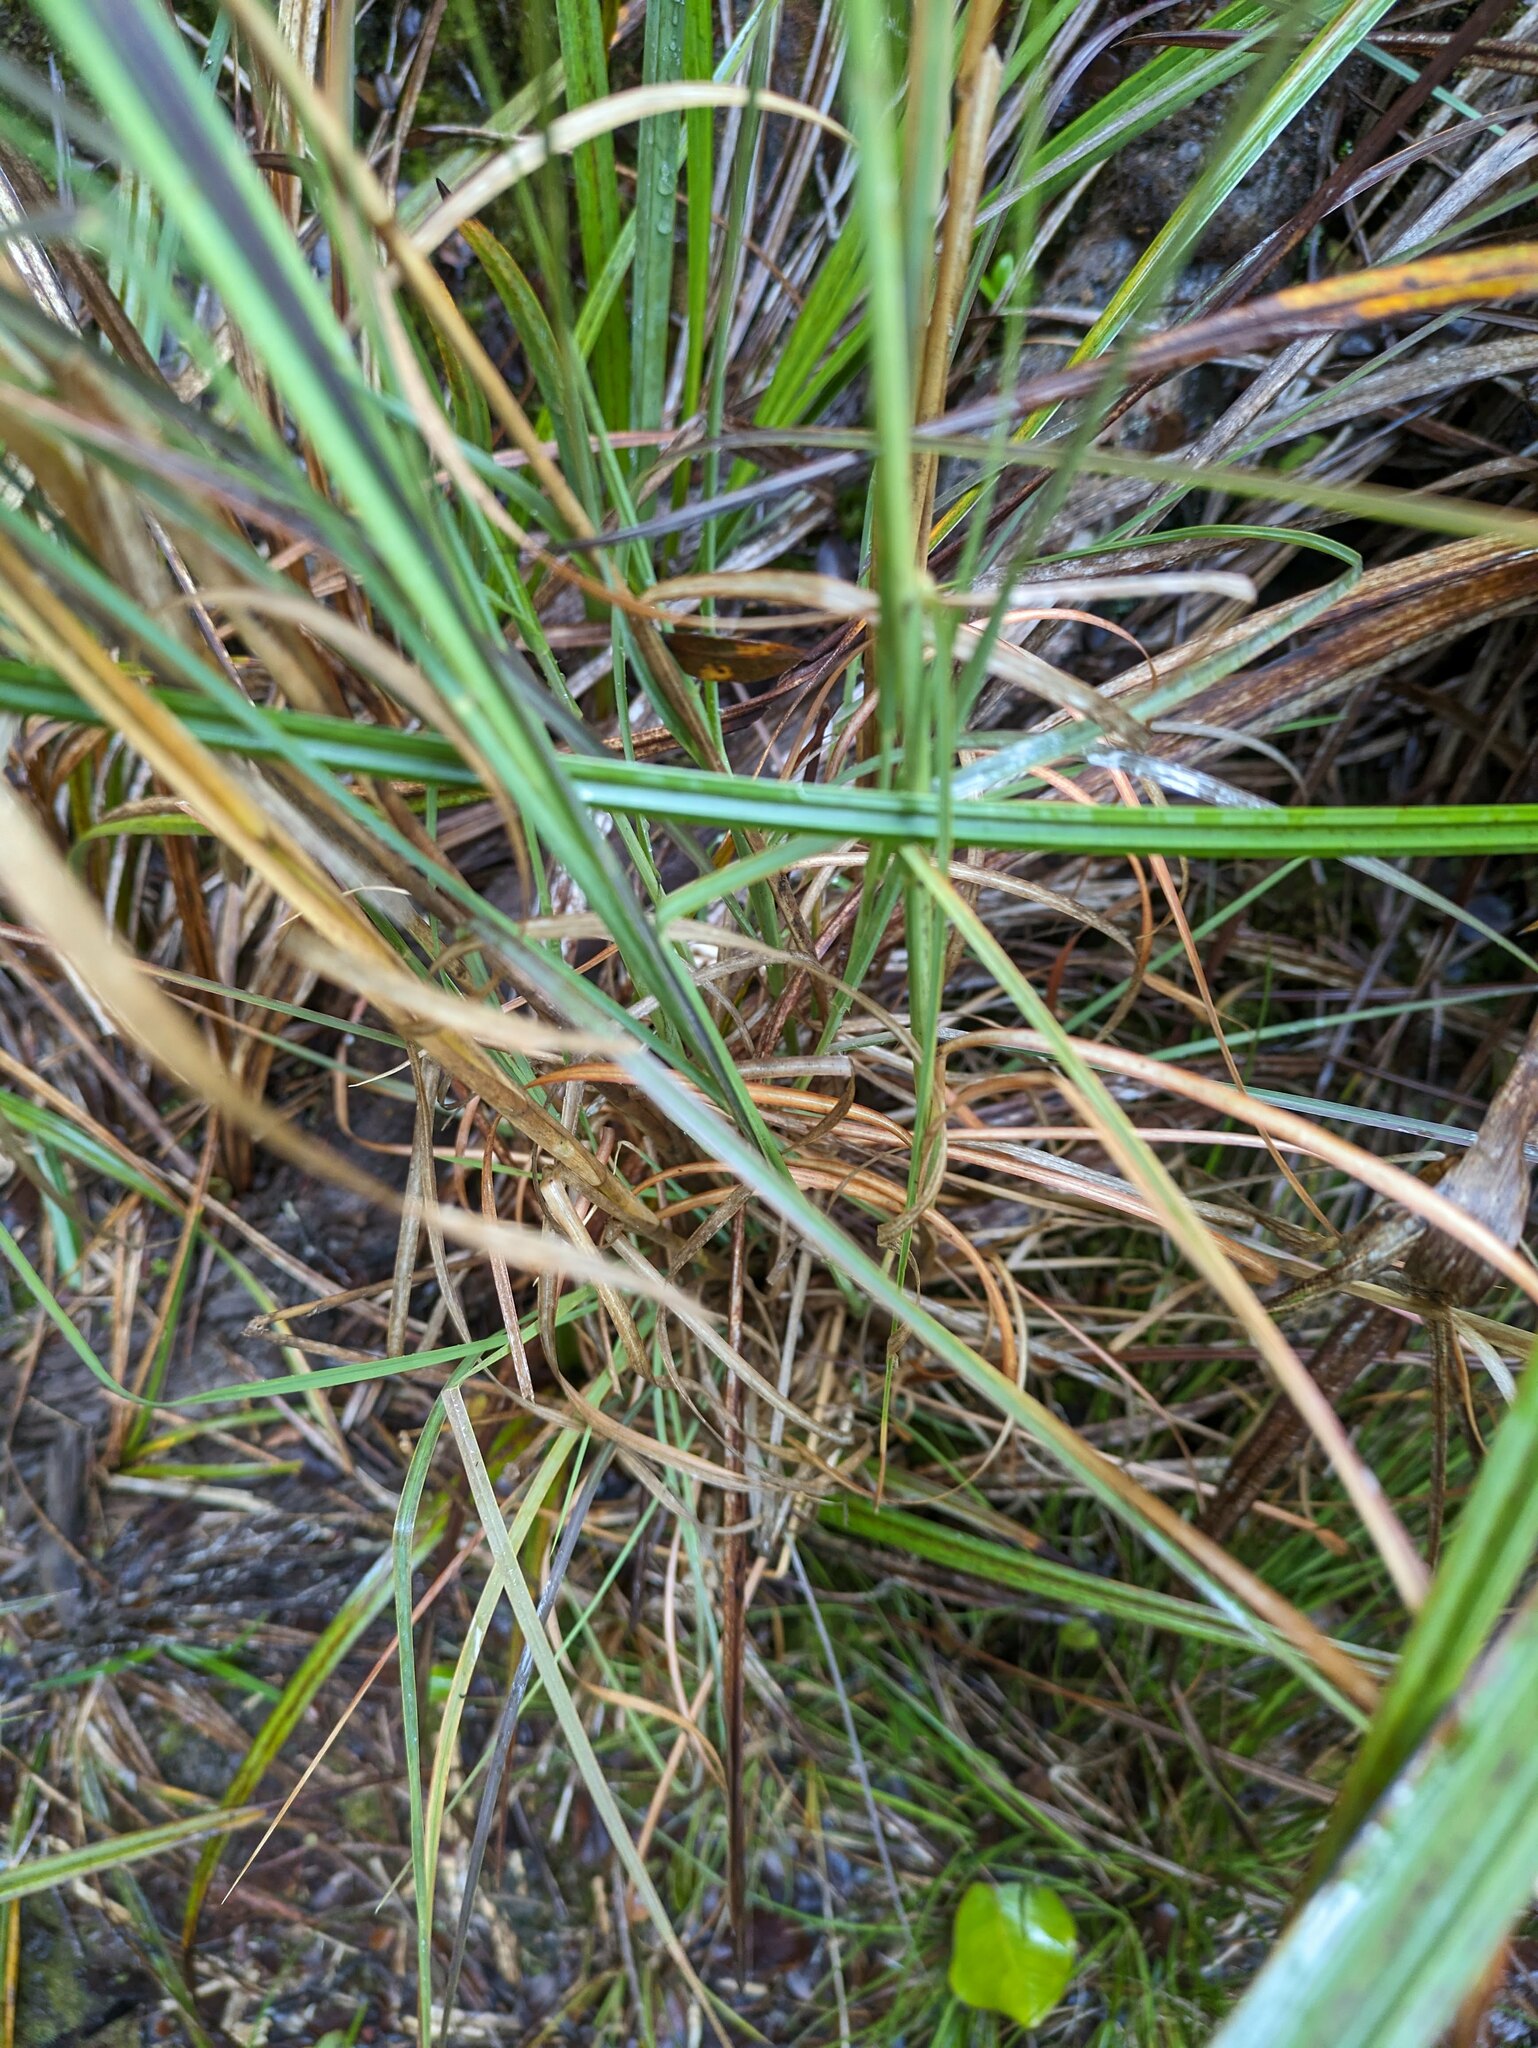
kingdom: Plantae
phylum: Tracheophyta
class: Liliopsida
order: Poales
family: Cyperaceae
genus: Carex
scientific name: Carex alligata
